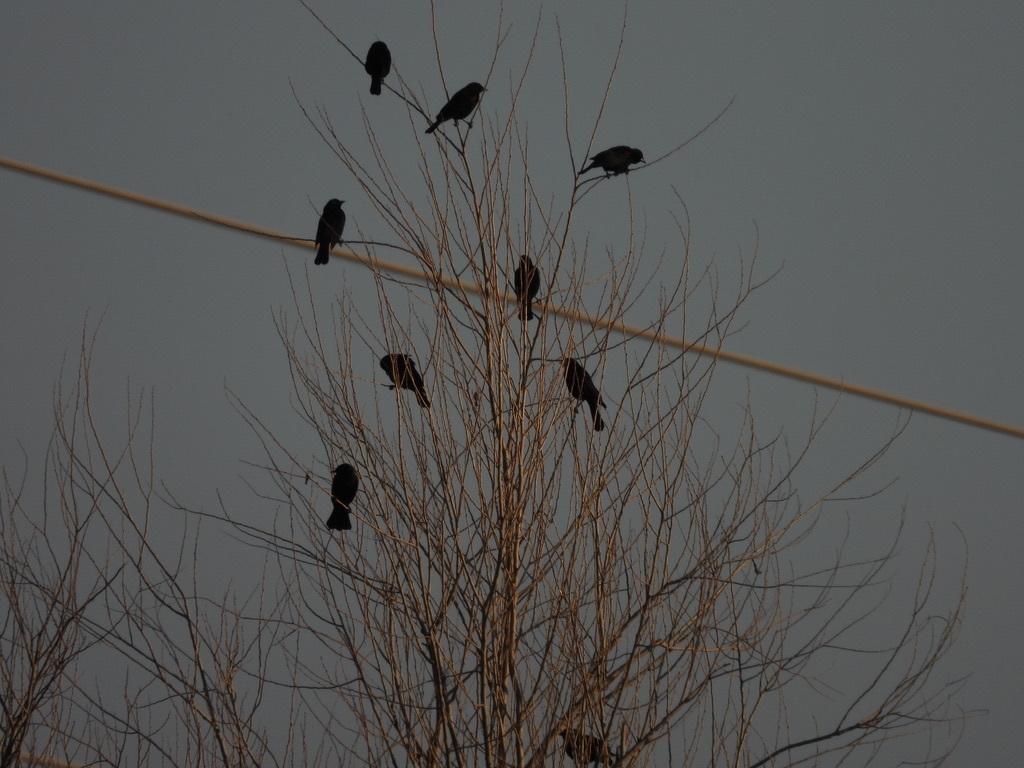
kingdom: Animalia
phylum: Chordata
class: Aves
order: Passeriformes
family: Icteridae
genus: Agelaius
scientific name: Agelaius phoeniceus
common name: Red-winged blackbird
